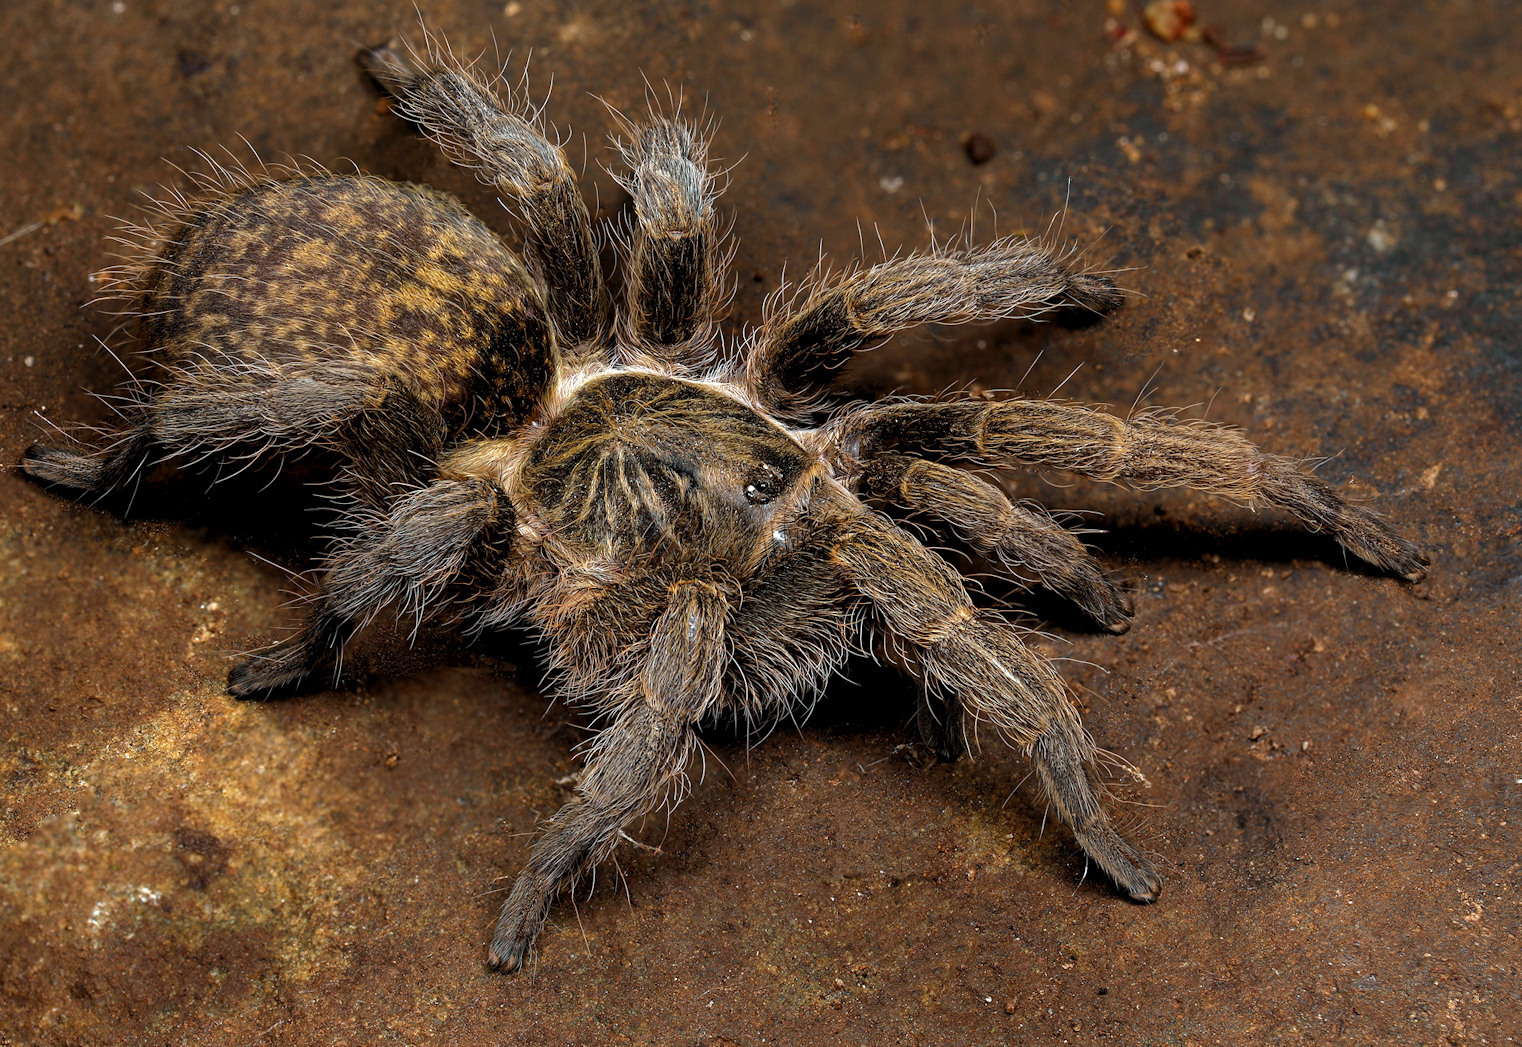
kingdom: Animalia
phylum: Arthropoda
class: Arachnida
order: Araneae
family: Theraphosidae
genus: Harpactirella
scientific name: Harpactirella overdijki
